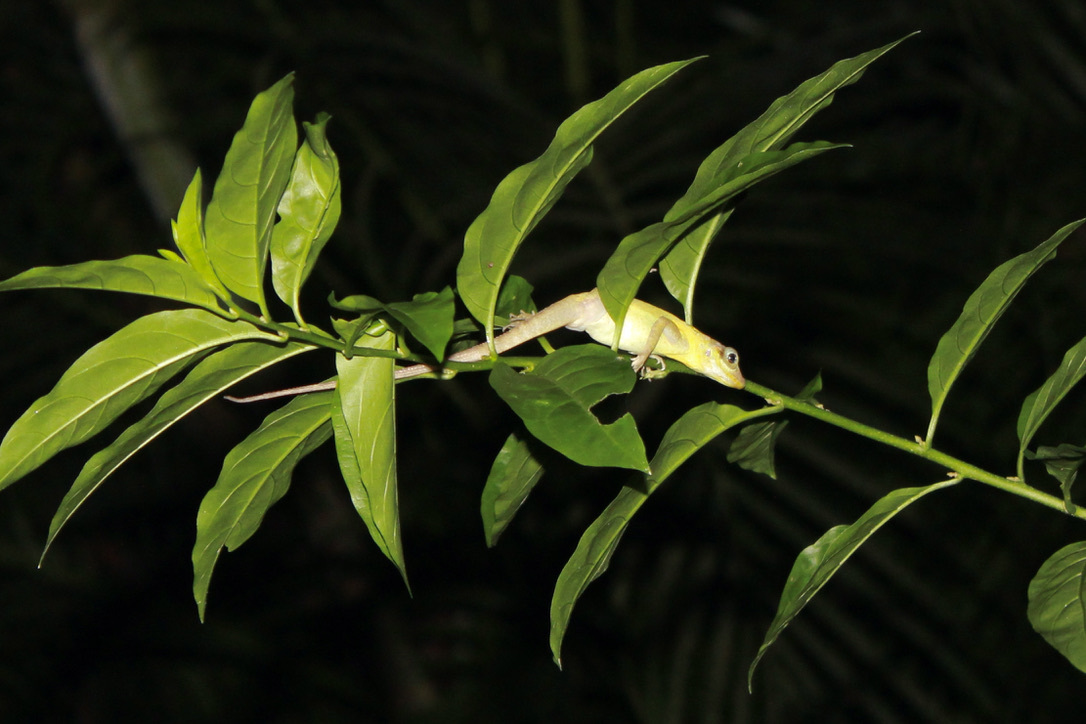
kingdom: Animalia
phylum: Chordata
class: Squamata
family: Dactyloidae
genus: Anolis
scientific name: Anolis richardii
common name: Grenada tree anole
